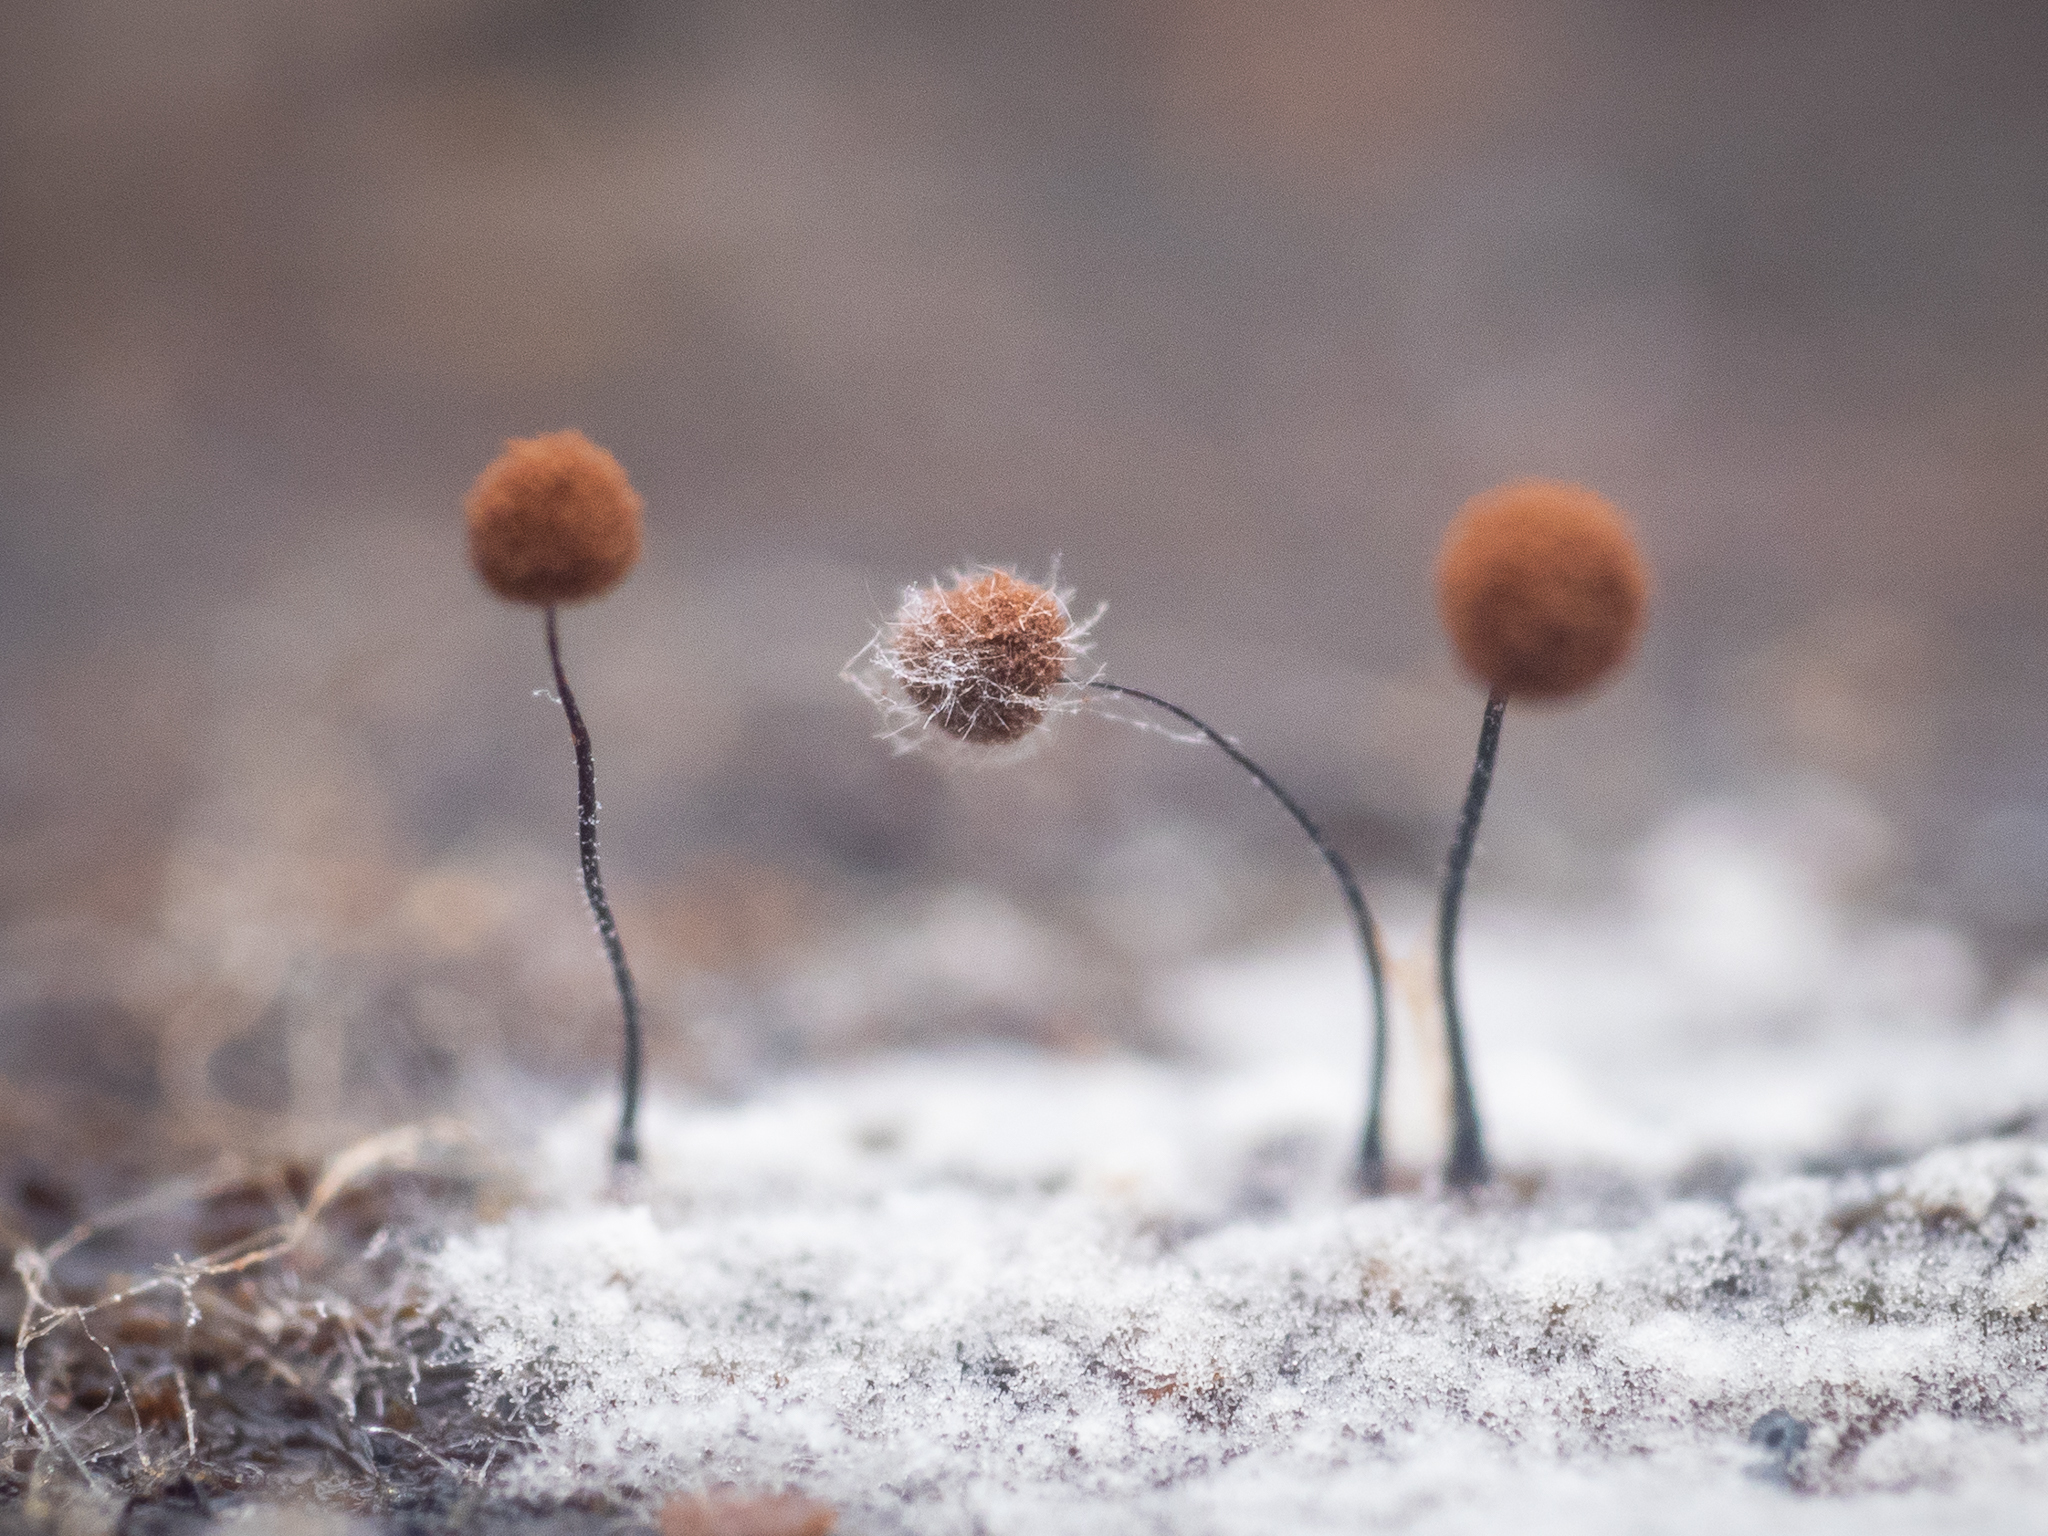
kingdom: Protozoa
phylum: Mycetozoa
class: Myxomycetes
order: Stemonitidales
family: Stemonitidaceae
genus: Comatricha
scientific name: Comatricha nigra
